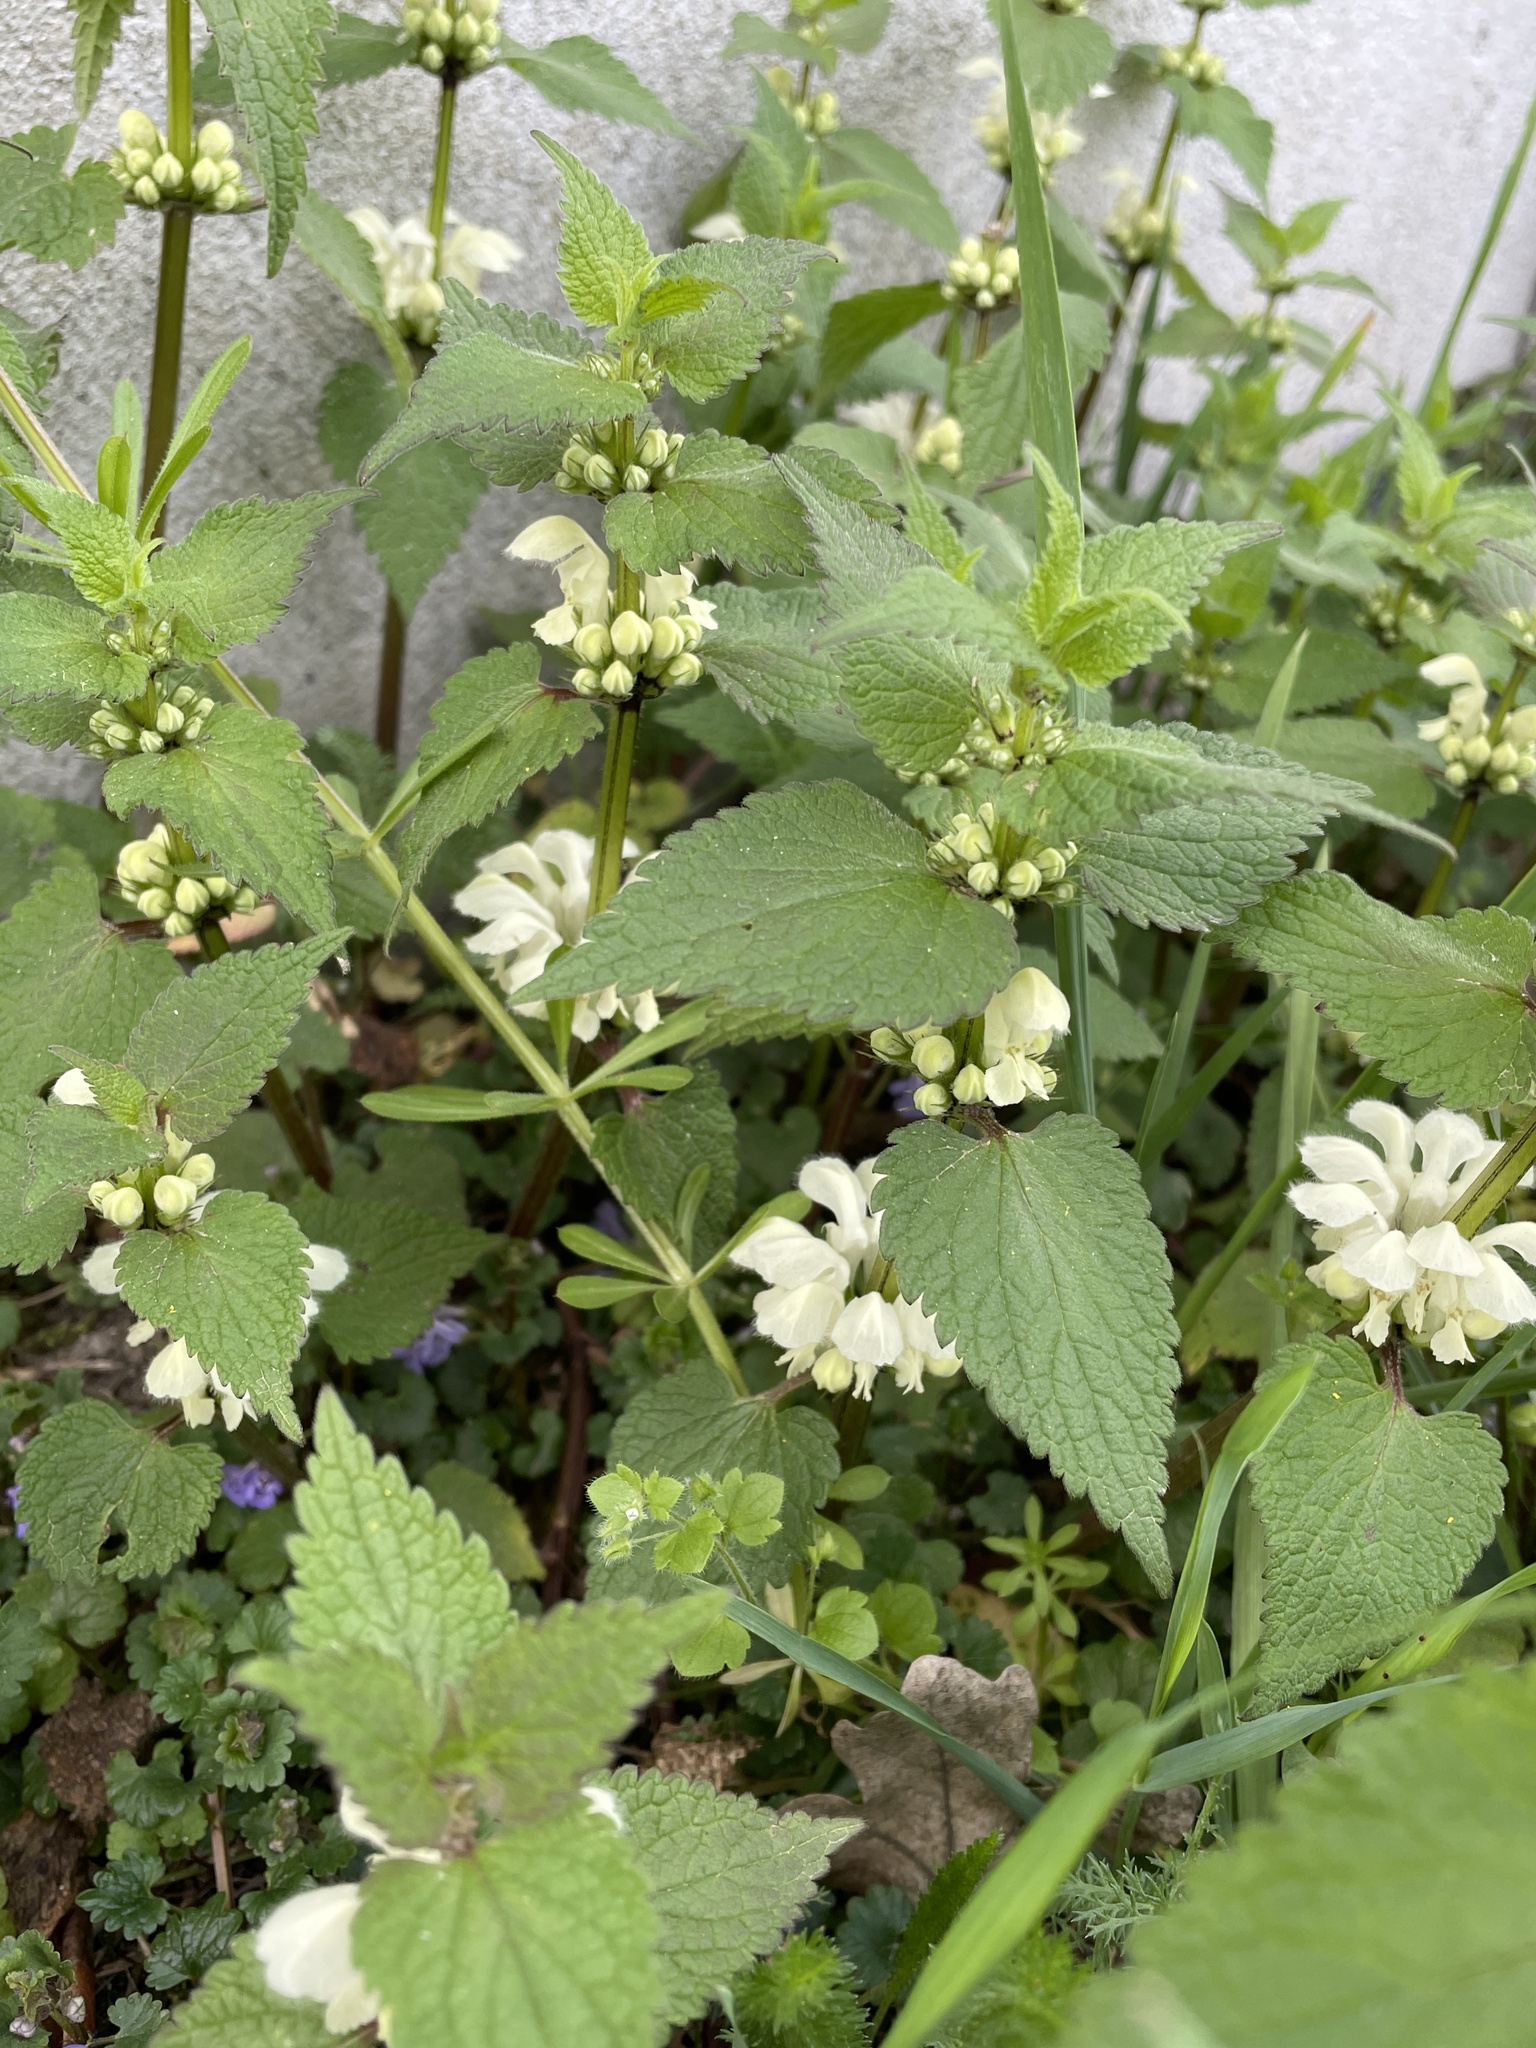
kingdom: Plantae
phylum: Tracheophyta
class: Magnoliopsida
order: Lamiales
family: Lamiaceae
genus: Lamium
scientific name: Lamium album
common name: White dead-nettle
